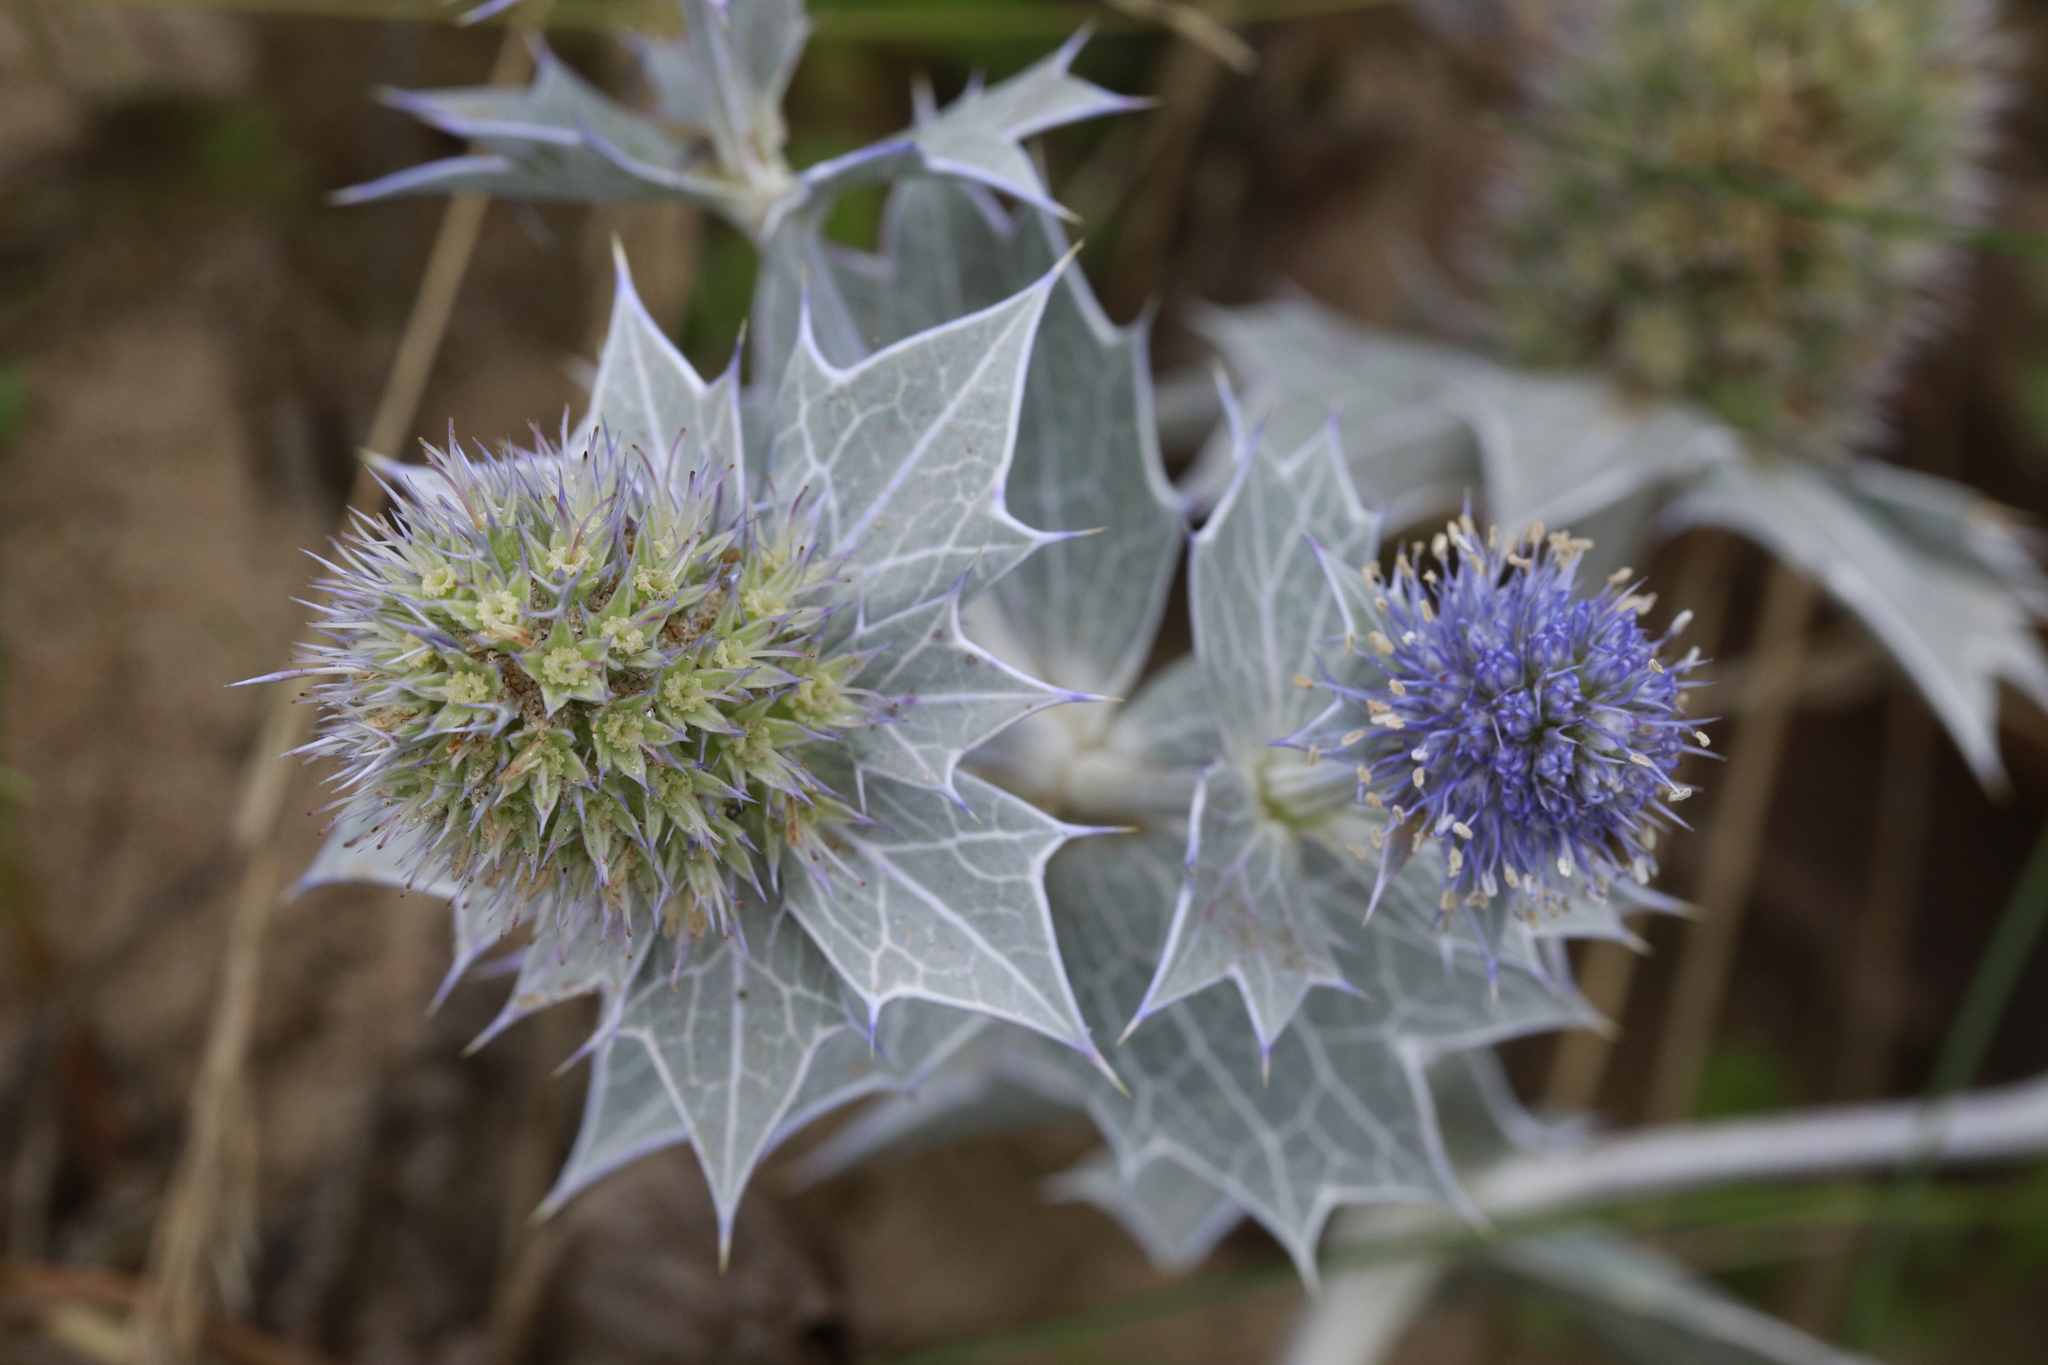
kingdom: Plantae
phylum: Tracheophyta
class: Magnoliopsida
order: Apiales
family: Apiaceae
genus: Eryngium
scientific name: Eryngium maritimum
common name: Sea-holly
